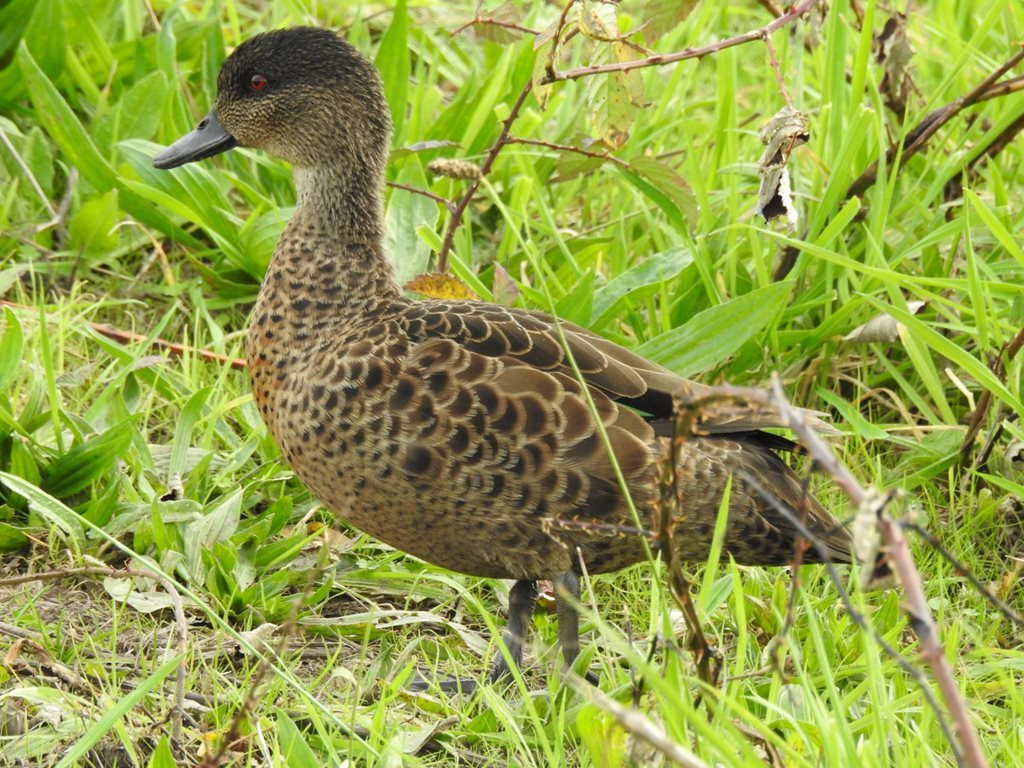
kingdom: Animalia
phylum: Chordata
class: Aves
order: Anseriformes
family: Anatidae
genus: Anas
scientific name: Anas castanea
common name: Chestnut teal
